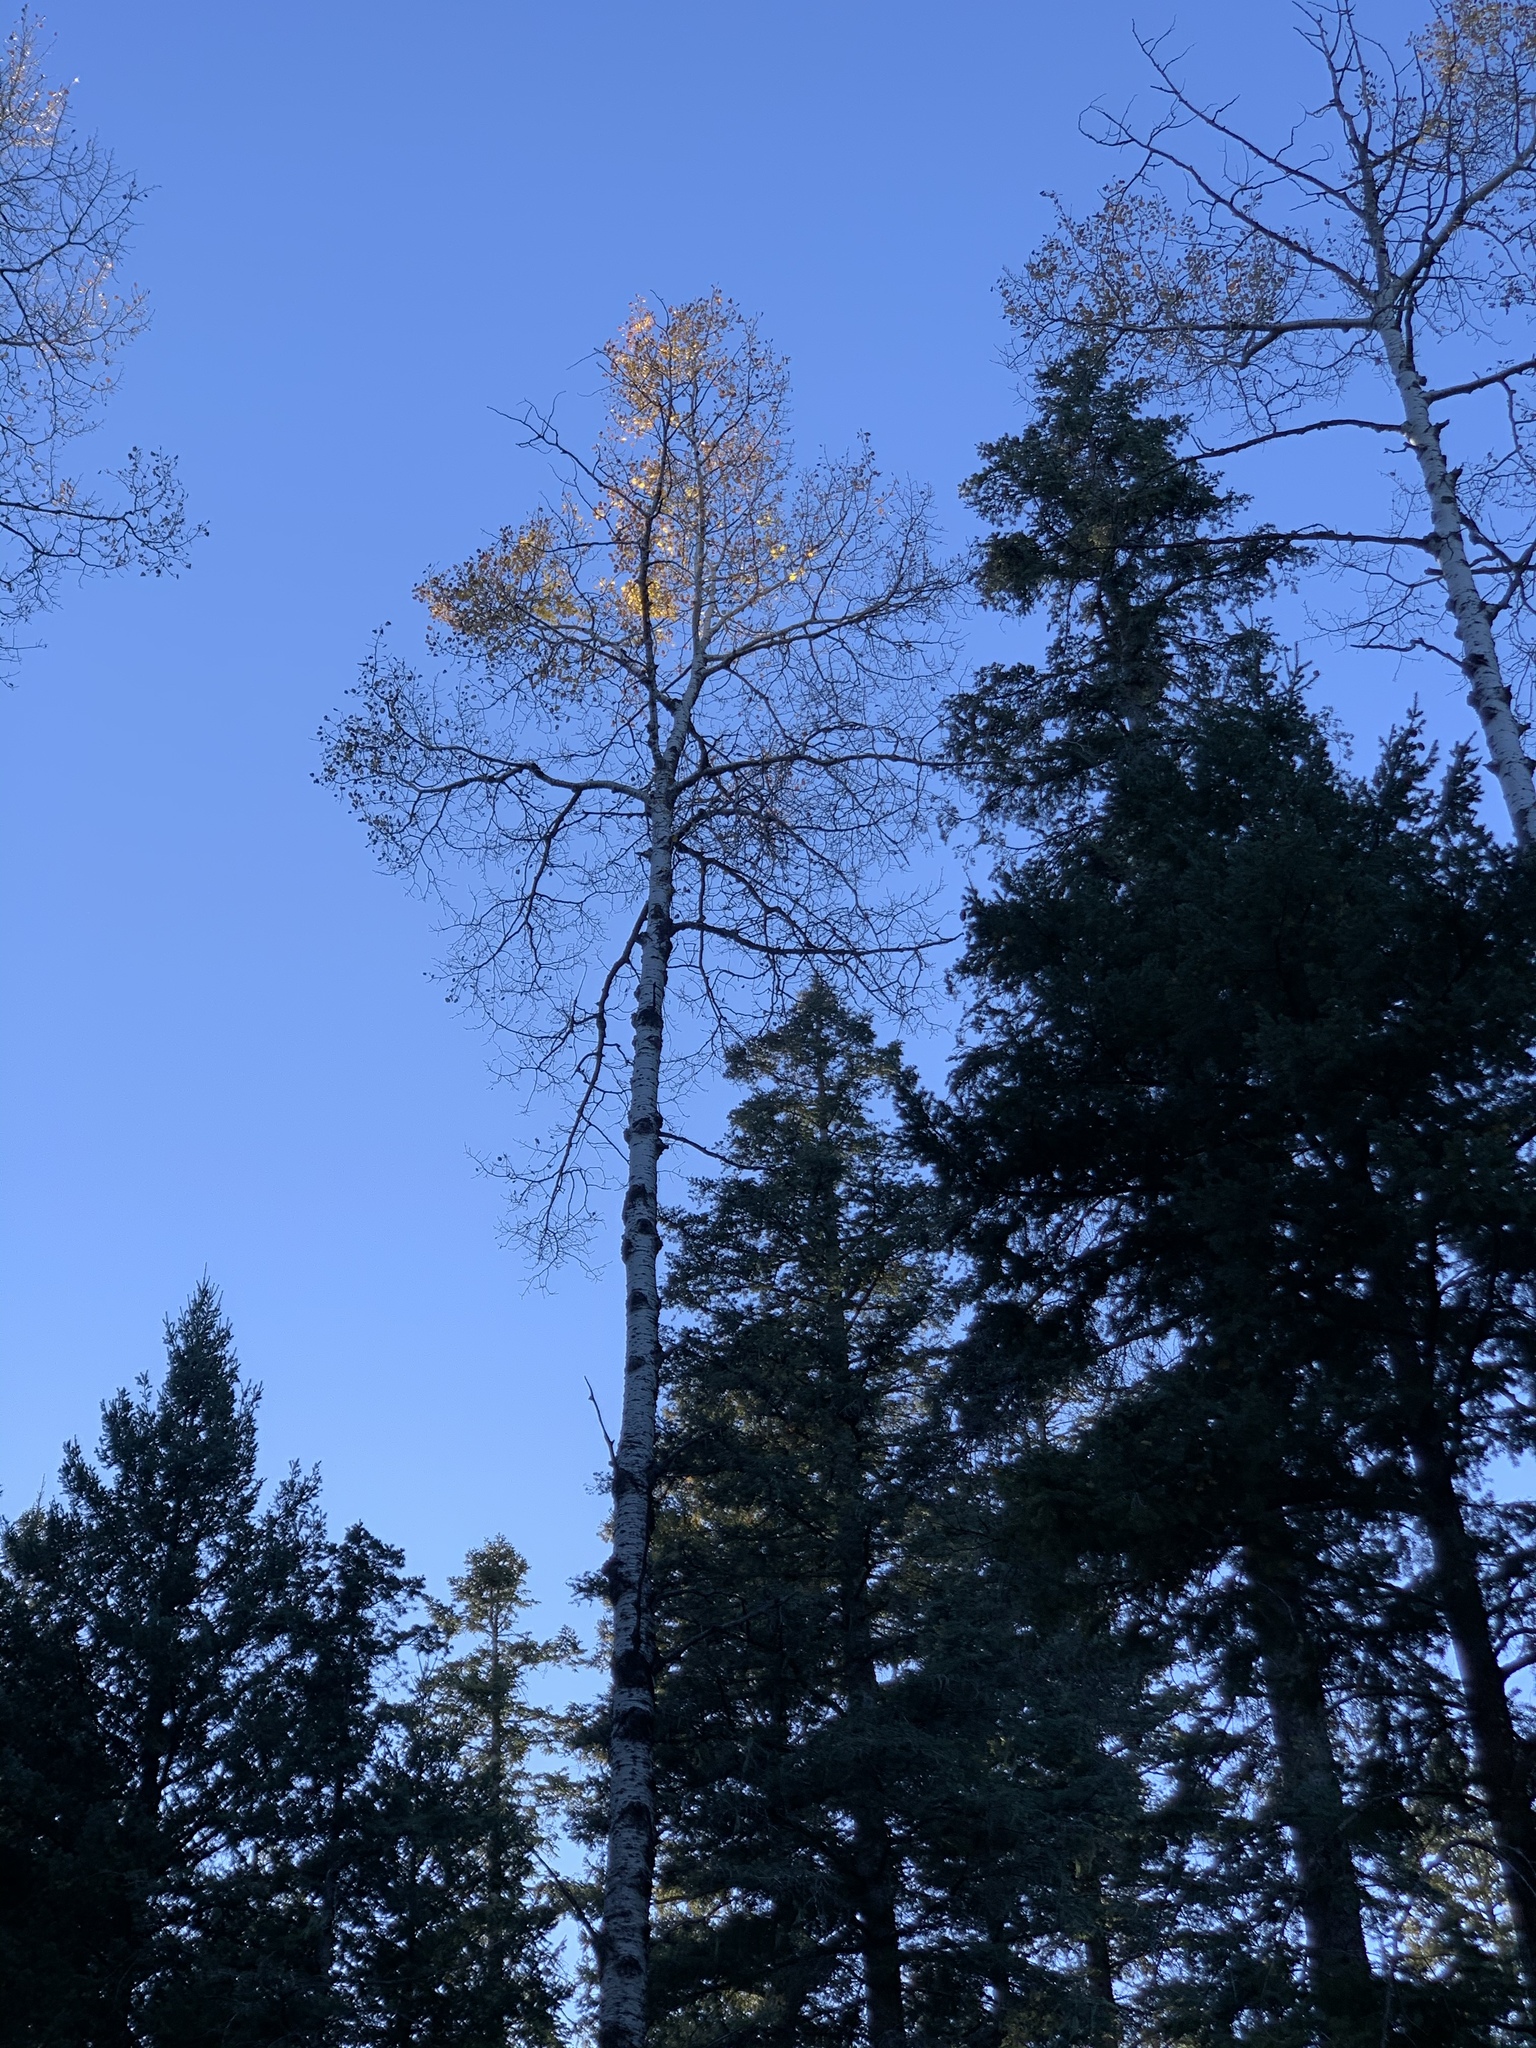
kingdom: Plantae
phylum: Tracheophyta
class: Magnoliopsida
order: Malpighiales
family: Salicaceae
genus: Populus
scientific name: Populus tremuloides
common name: Quaking aspen
